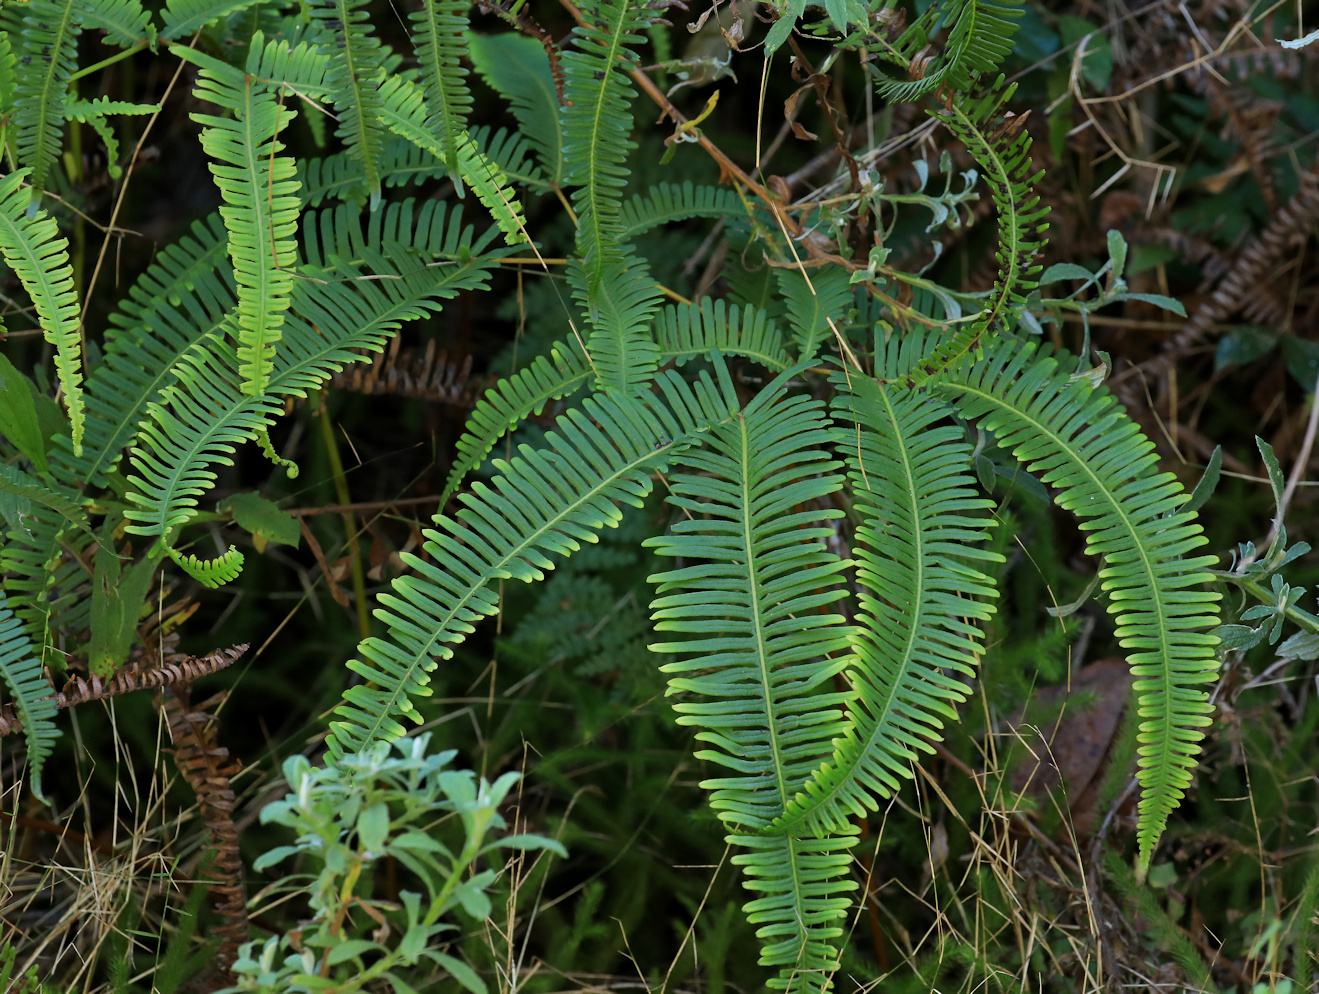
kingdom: Plantae
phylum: Tracheophyta
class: Polypodiopsida
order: Gleicheniales
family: Gleicheniaceae
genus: Dicranopteris
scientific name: Dicranopteris linearis
